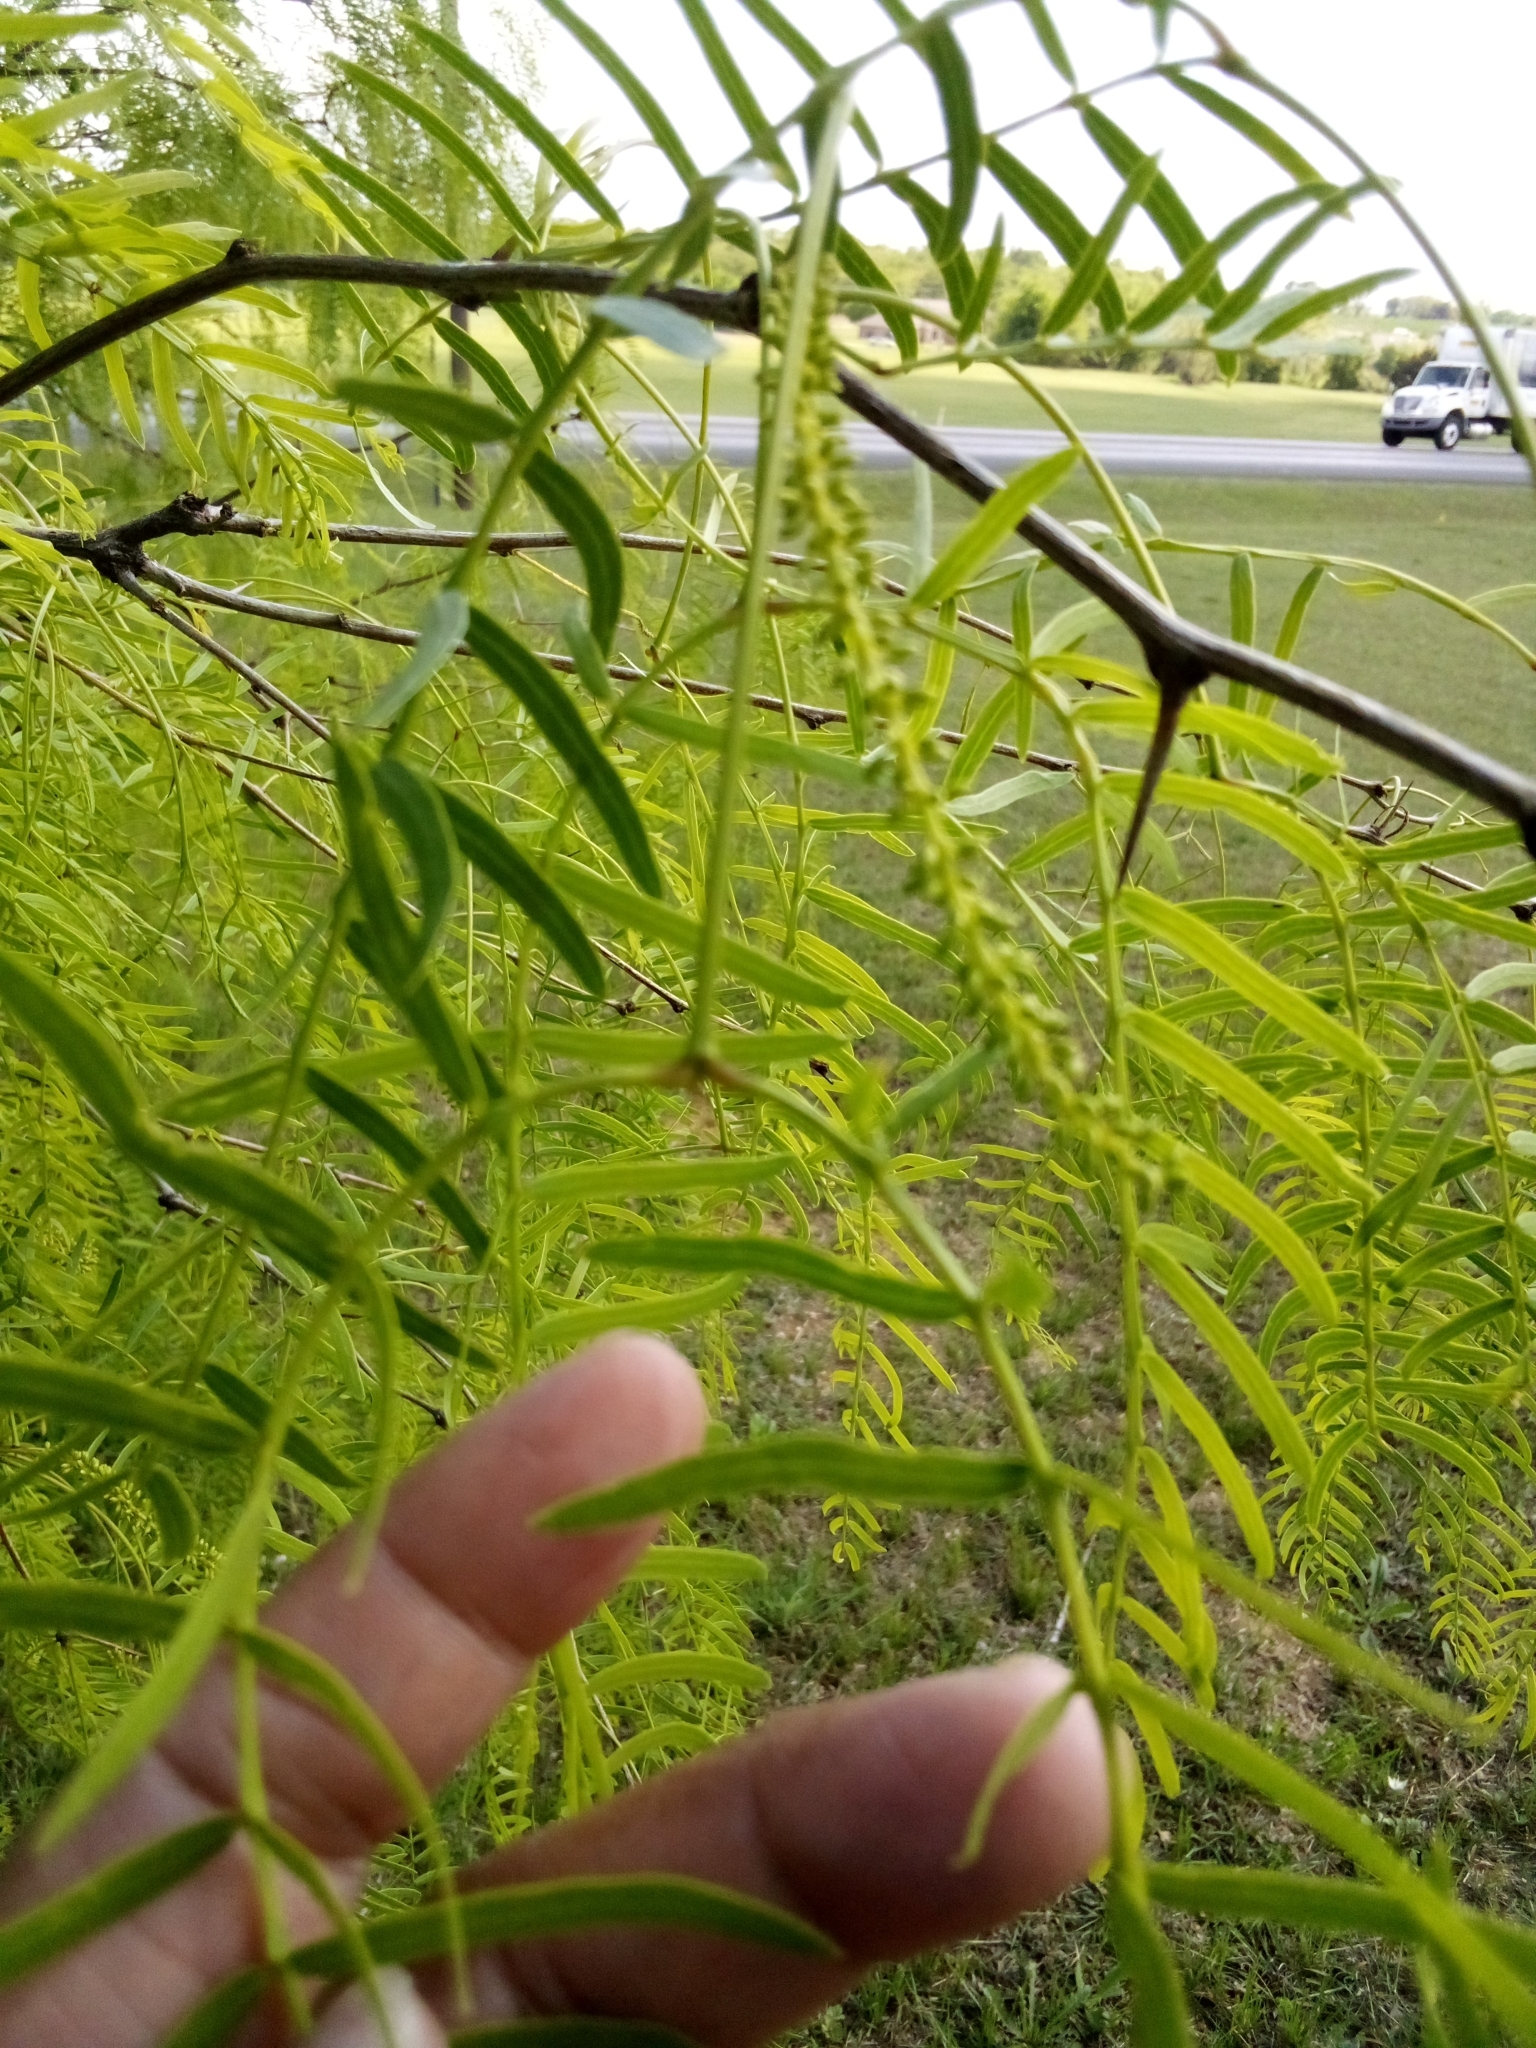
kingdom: Plantae
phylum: Tracheophyta
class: Magnoliopsida
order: Fabales
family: Fabaceae
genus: Prosopis
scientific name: Prosopis glandulosa
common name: Honey mesquite
